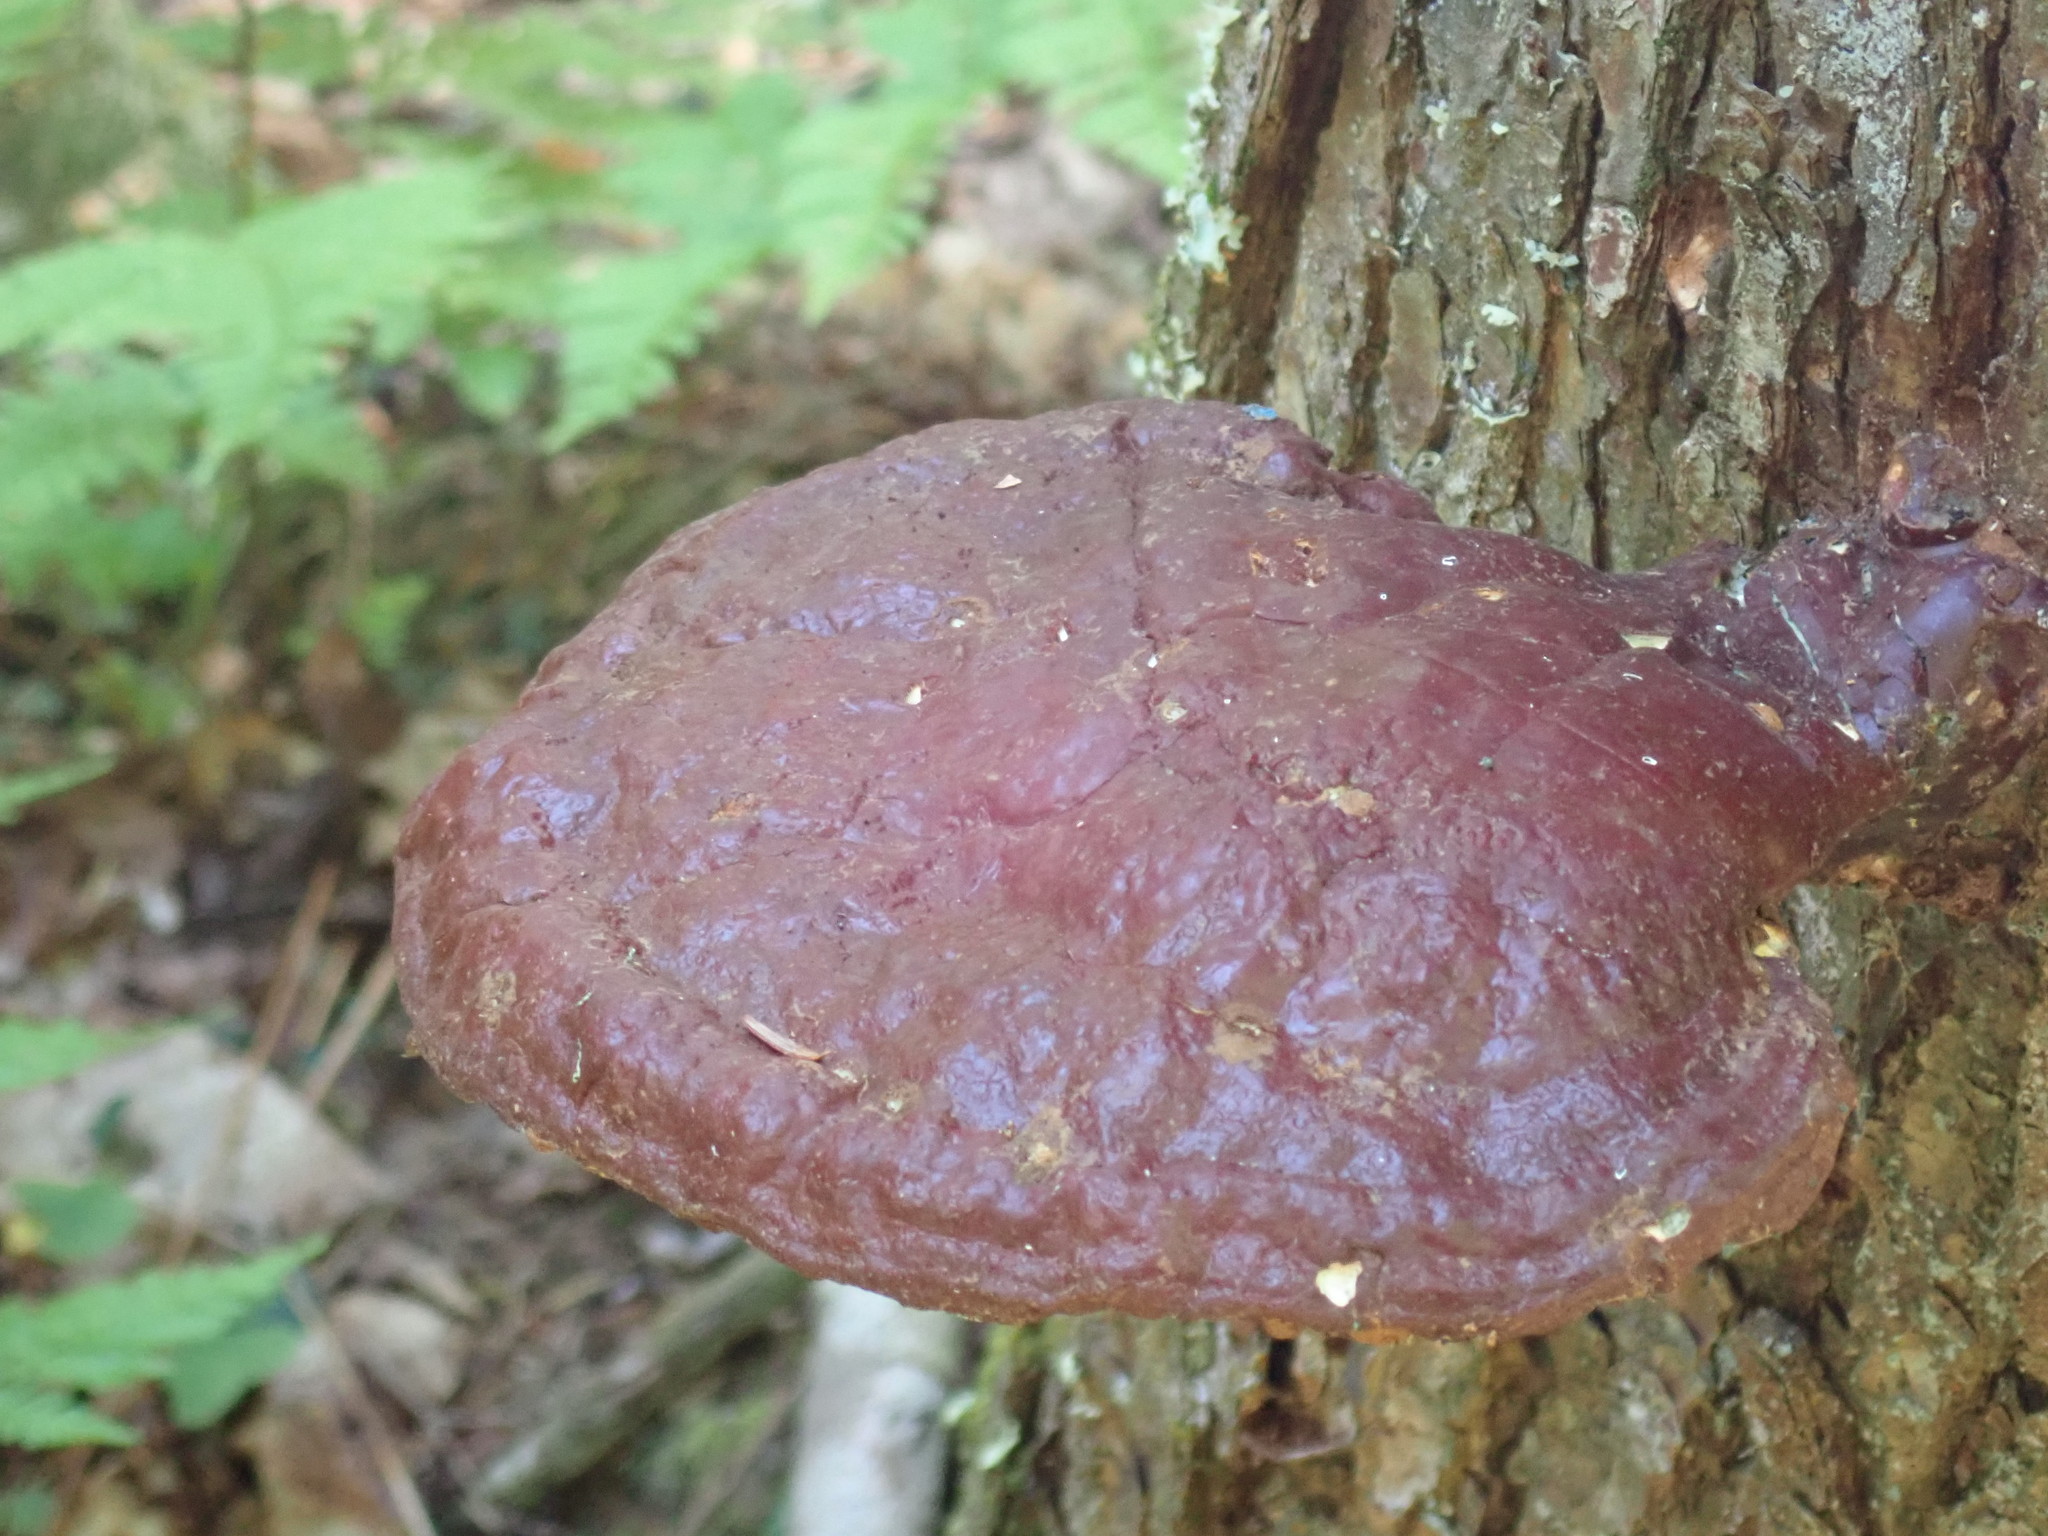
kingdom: Fungi
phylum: Basidiomycota
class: Agaricomycetes
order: Polyporales
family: Polyporaceae
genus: Ganoderma
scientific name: Ganoderma tsugae
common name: Hemlock varnish shelf
